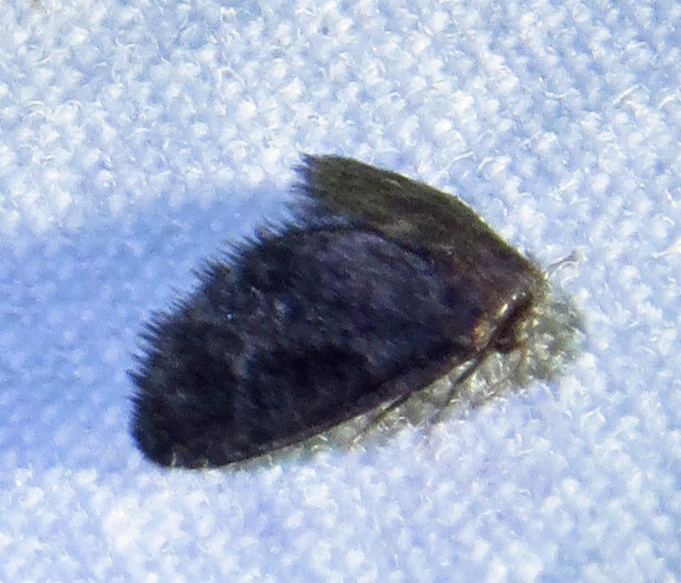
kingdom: Animalia
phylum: Arthropoda
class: Insecta
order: Lepidoptera
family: Epipyropidae
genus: Fulgoraecia
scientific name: Fulgoraecia exigua
